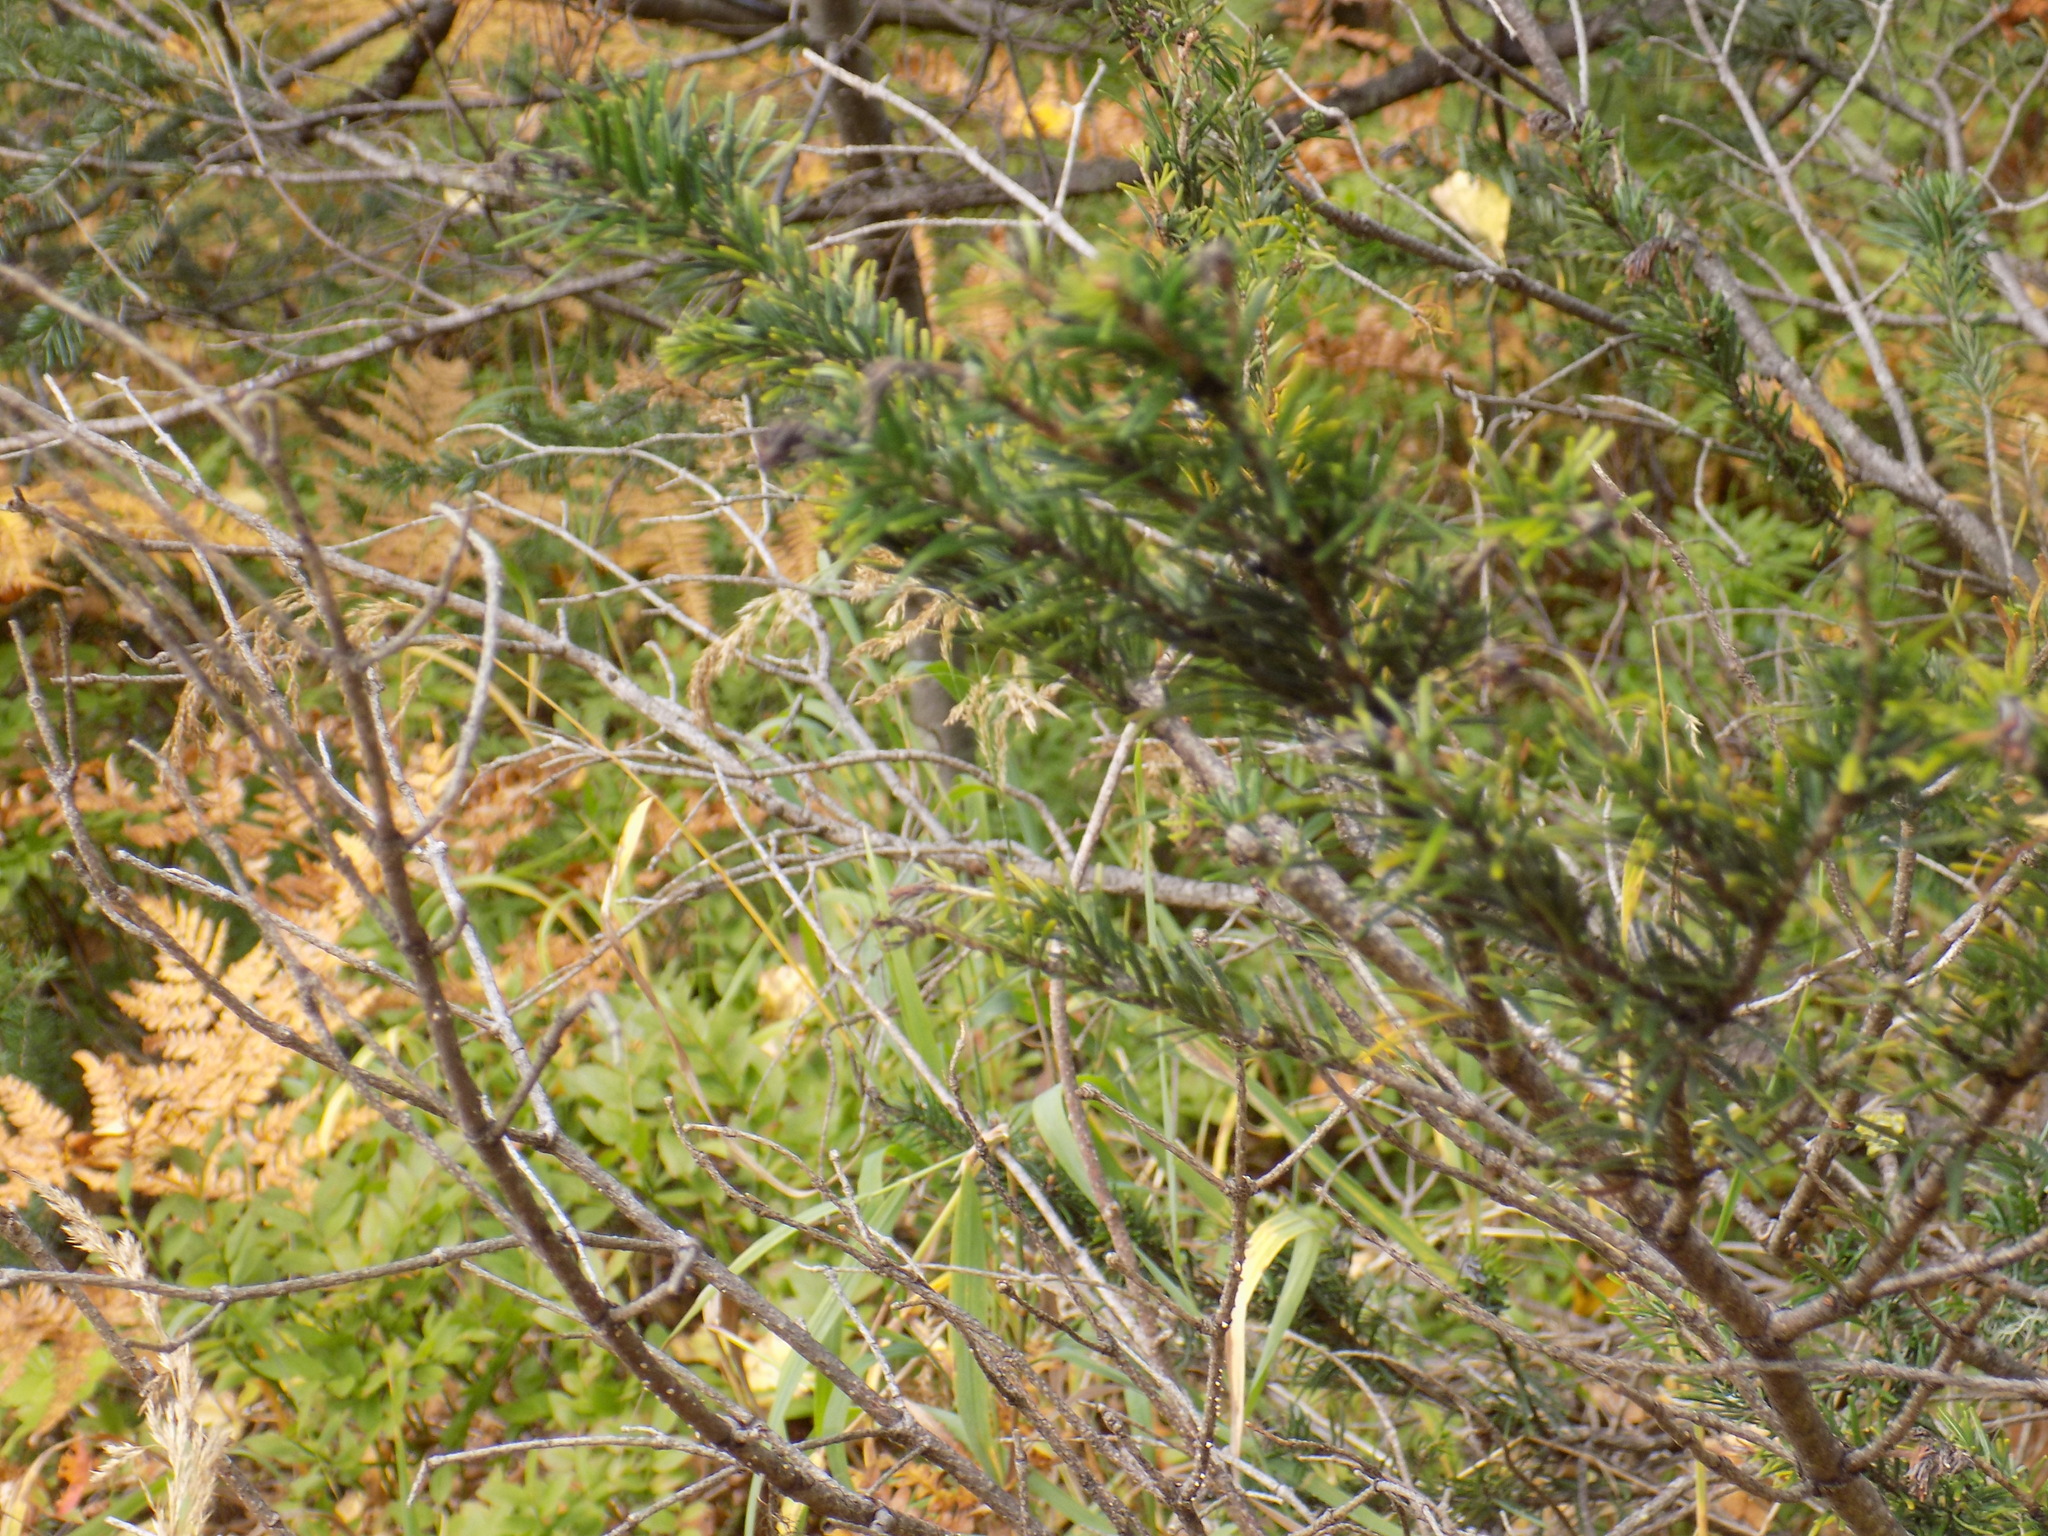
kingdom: Plantae
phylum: Tracheophyta
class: Pinopsida
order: Pinales
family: Pinaceae
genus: Abies
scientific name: Abies sibirica
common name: Siberian fir
